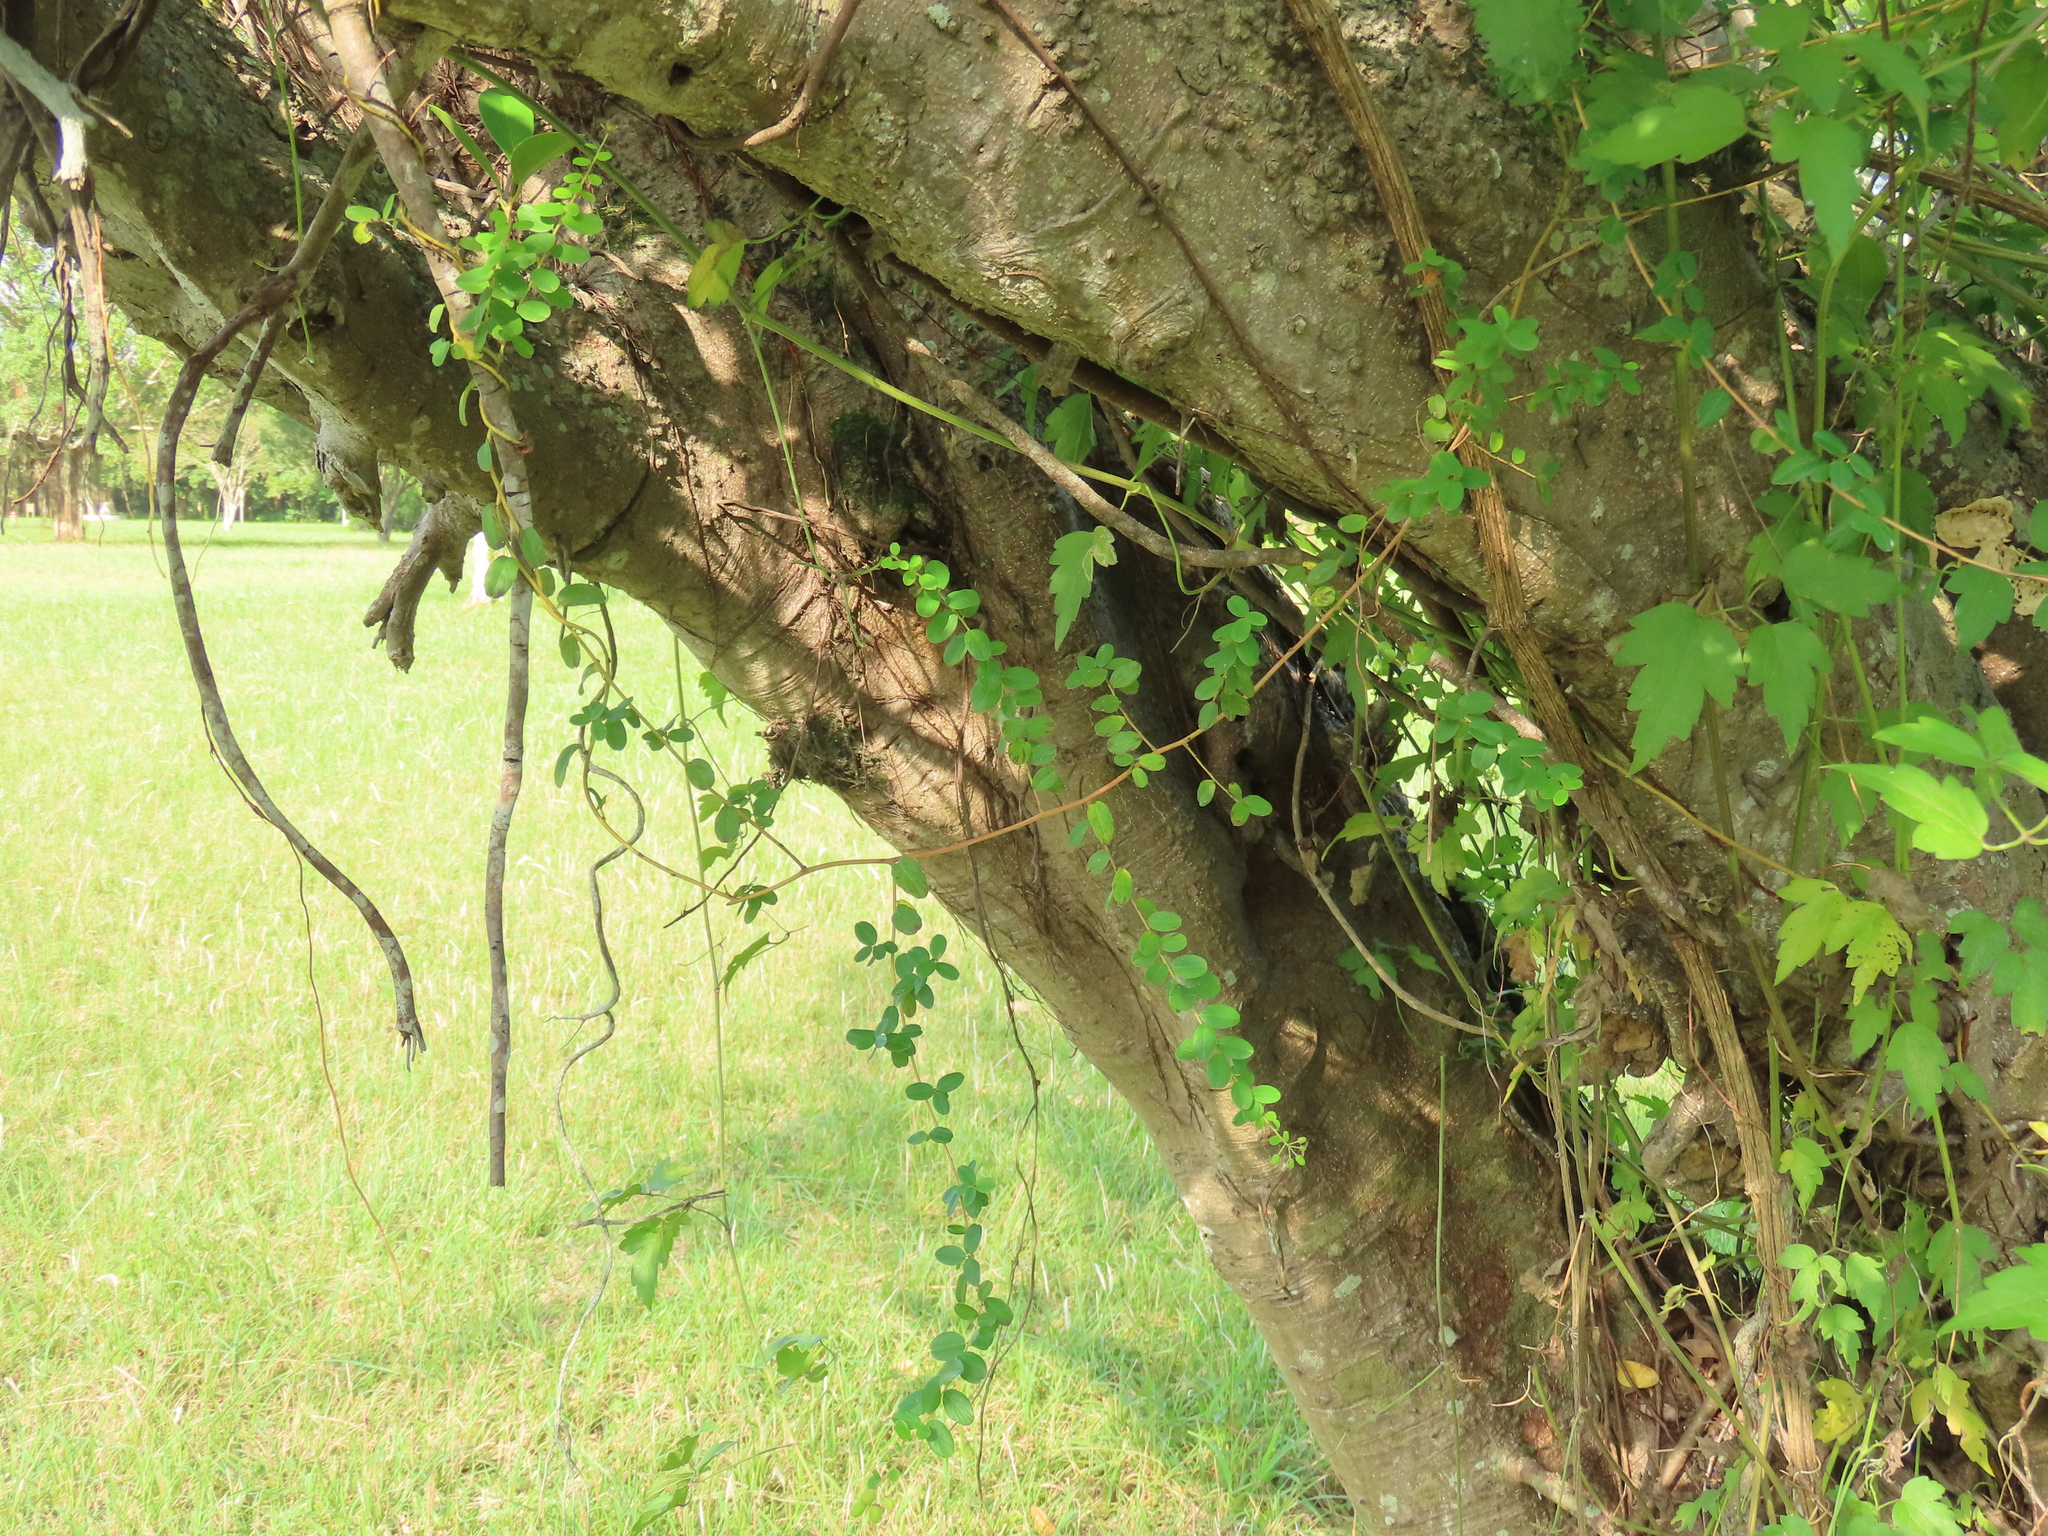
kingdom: Plantae
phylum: Tracheophyta
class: Magnoliopsida
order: Rosales
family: Rhamnaceae
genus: Berchemia
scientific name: Berchemia lineata
